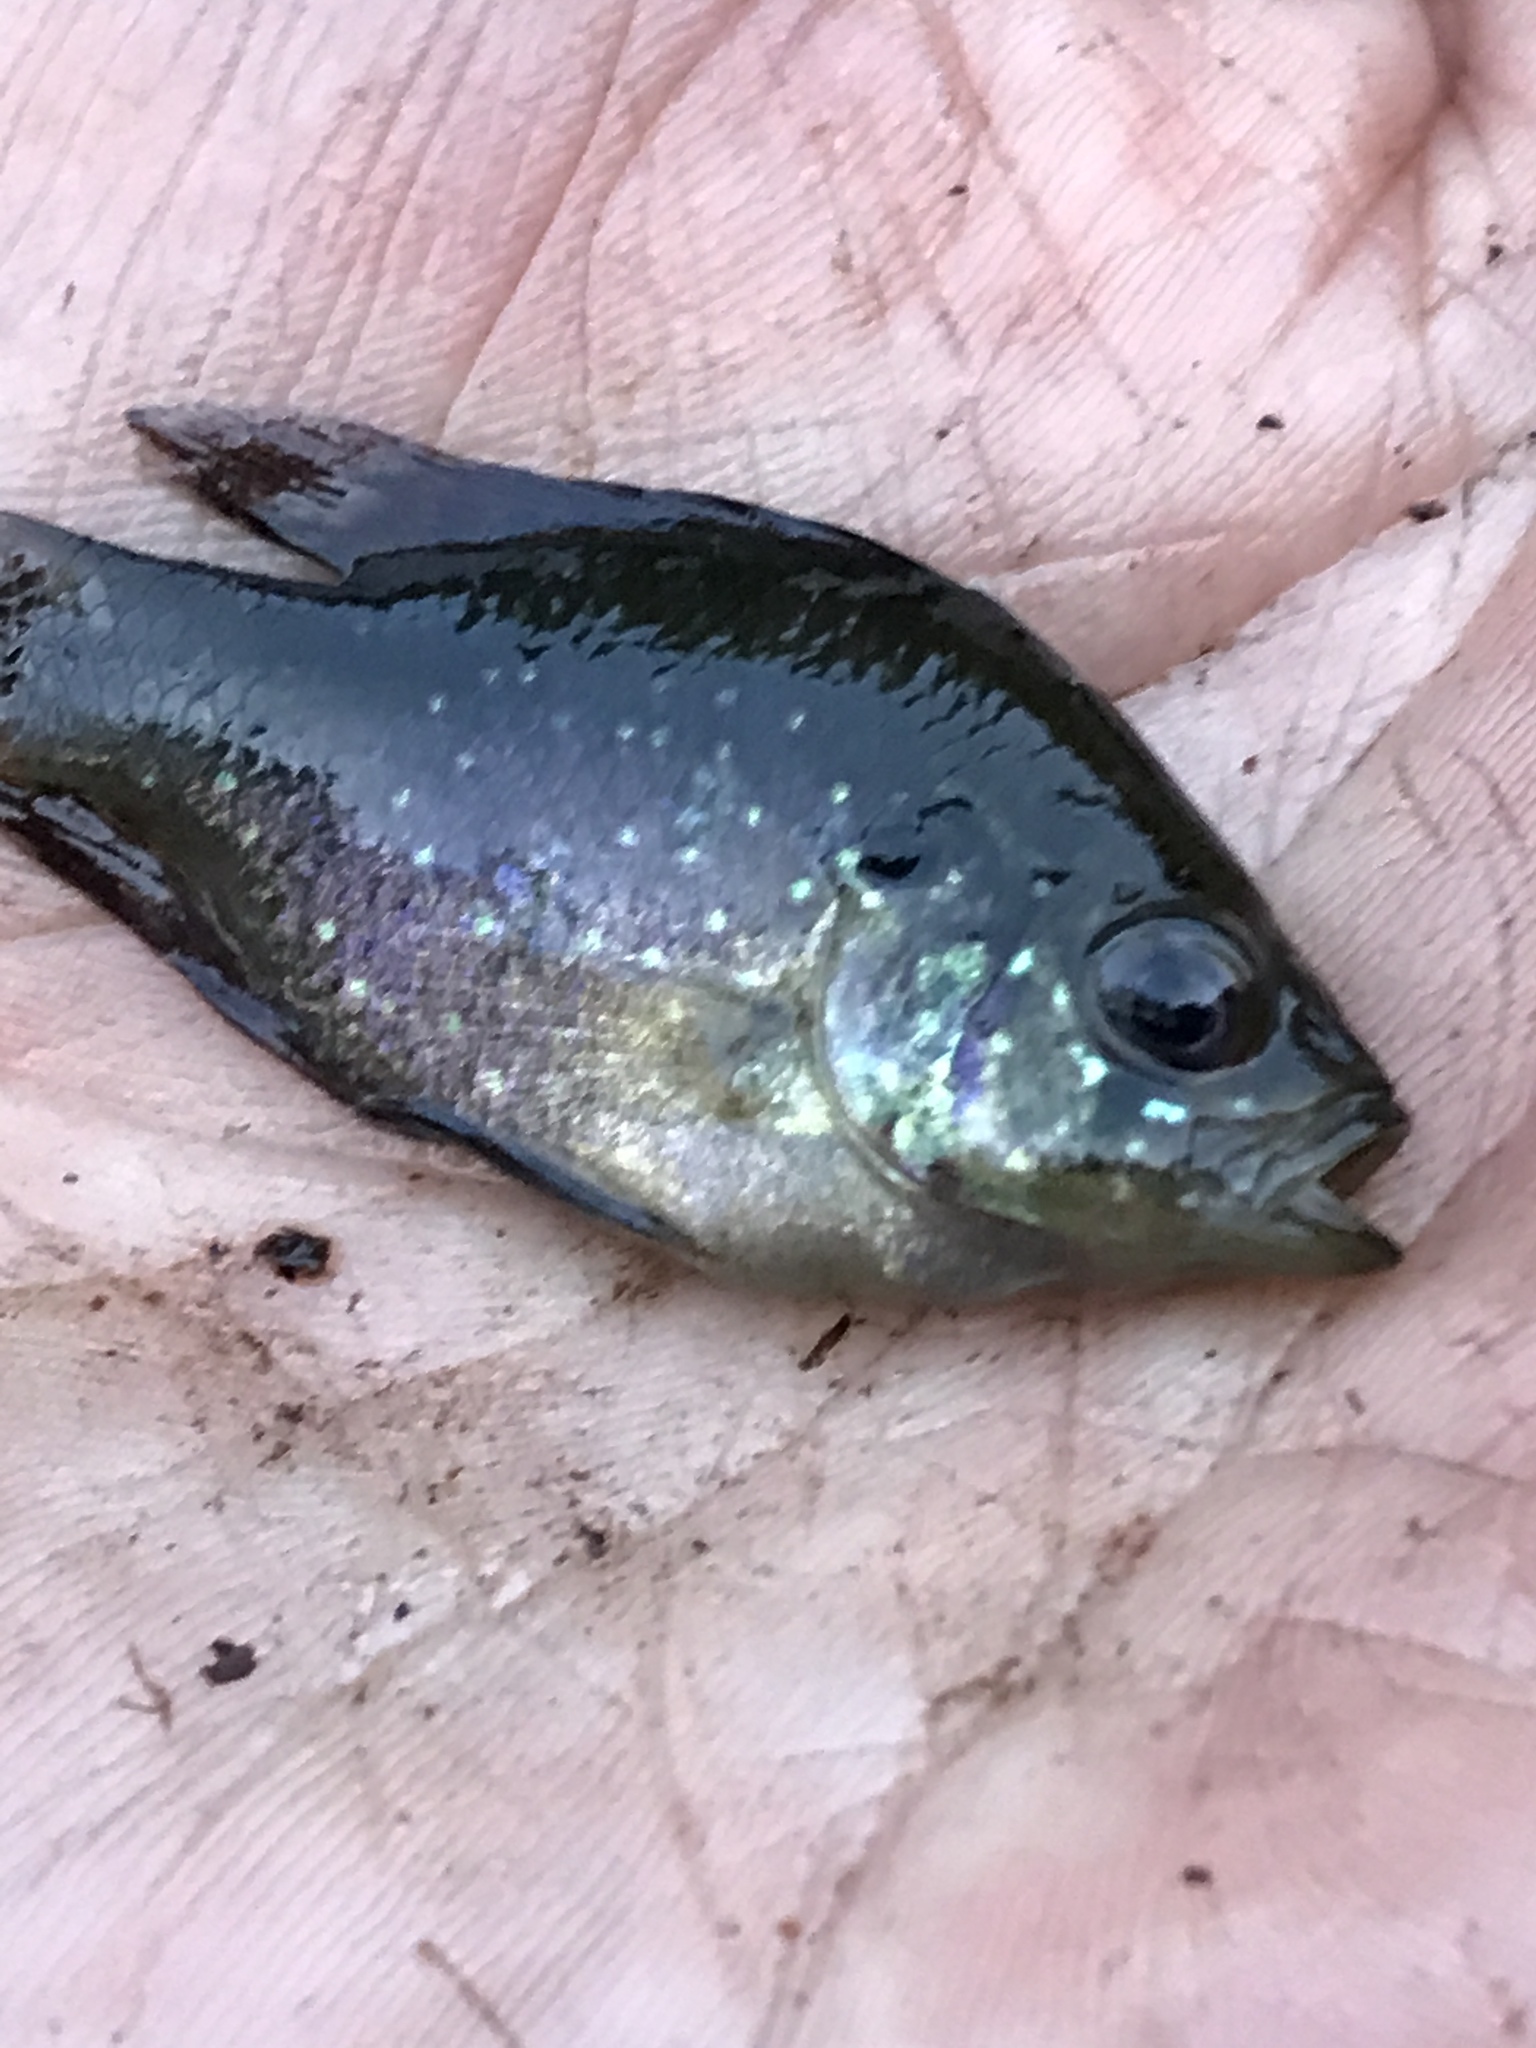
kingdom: Animalia
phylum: Chordata
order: Perciformes
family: Centrarchidae
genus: Enneacanthus
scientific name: Enneacanthus gloriosus
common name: Bluespotted sunfish
